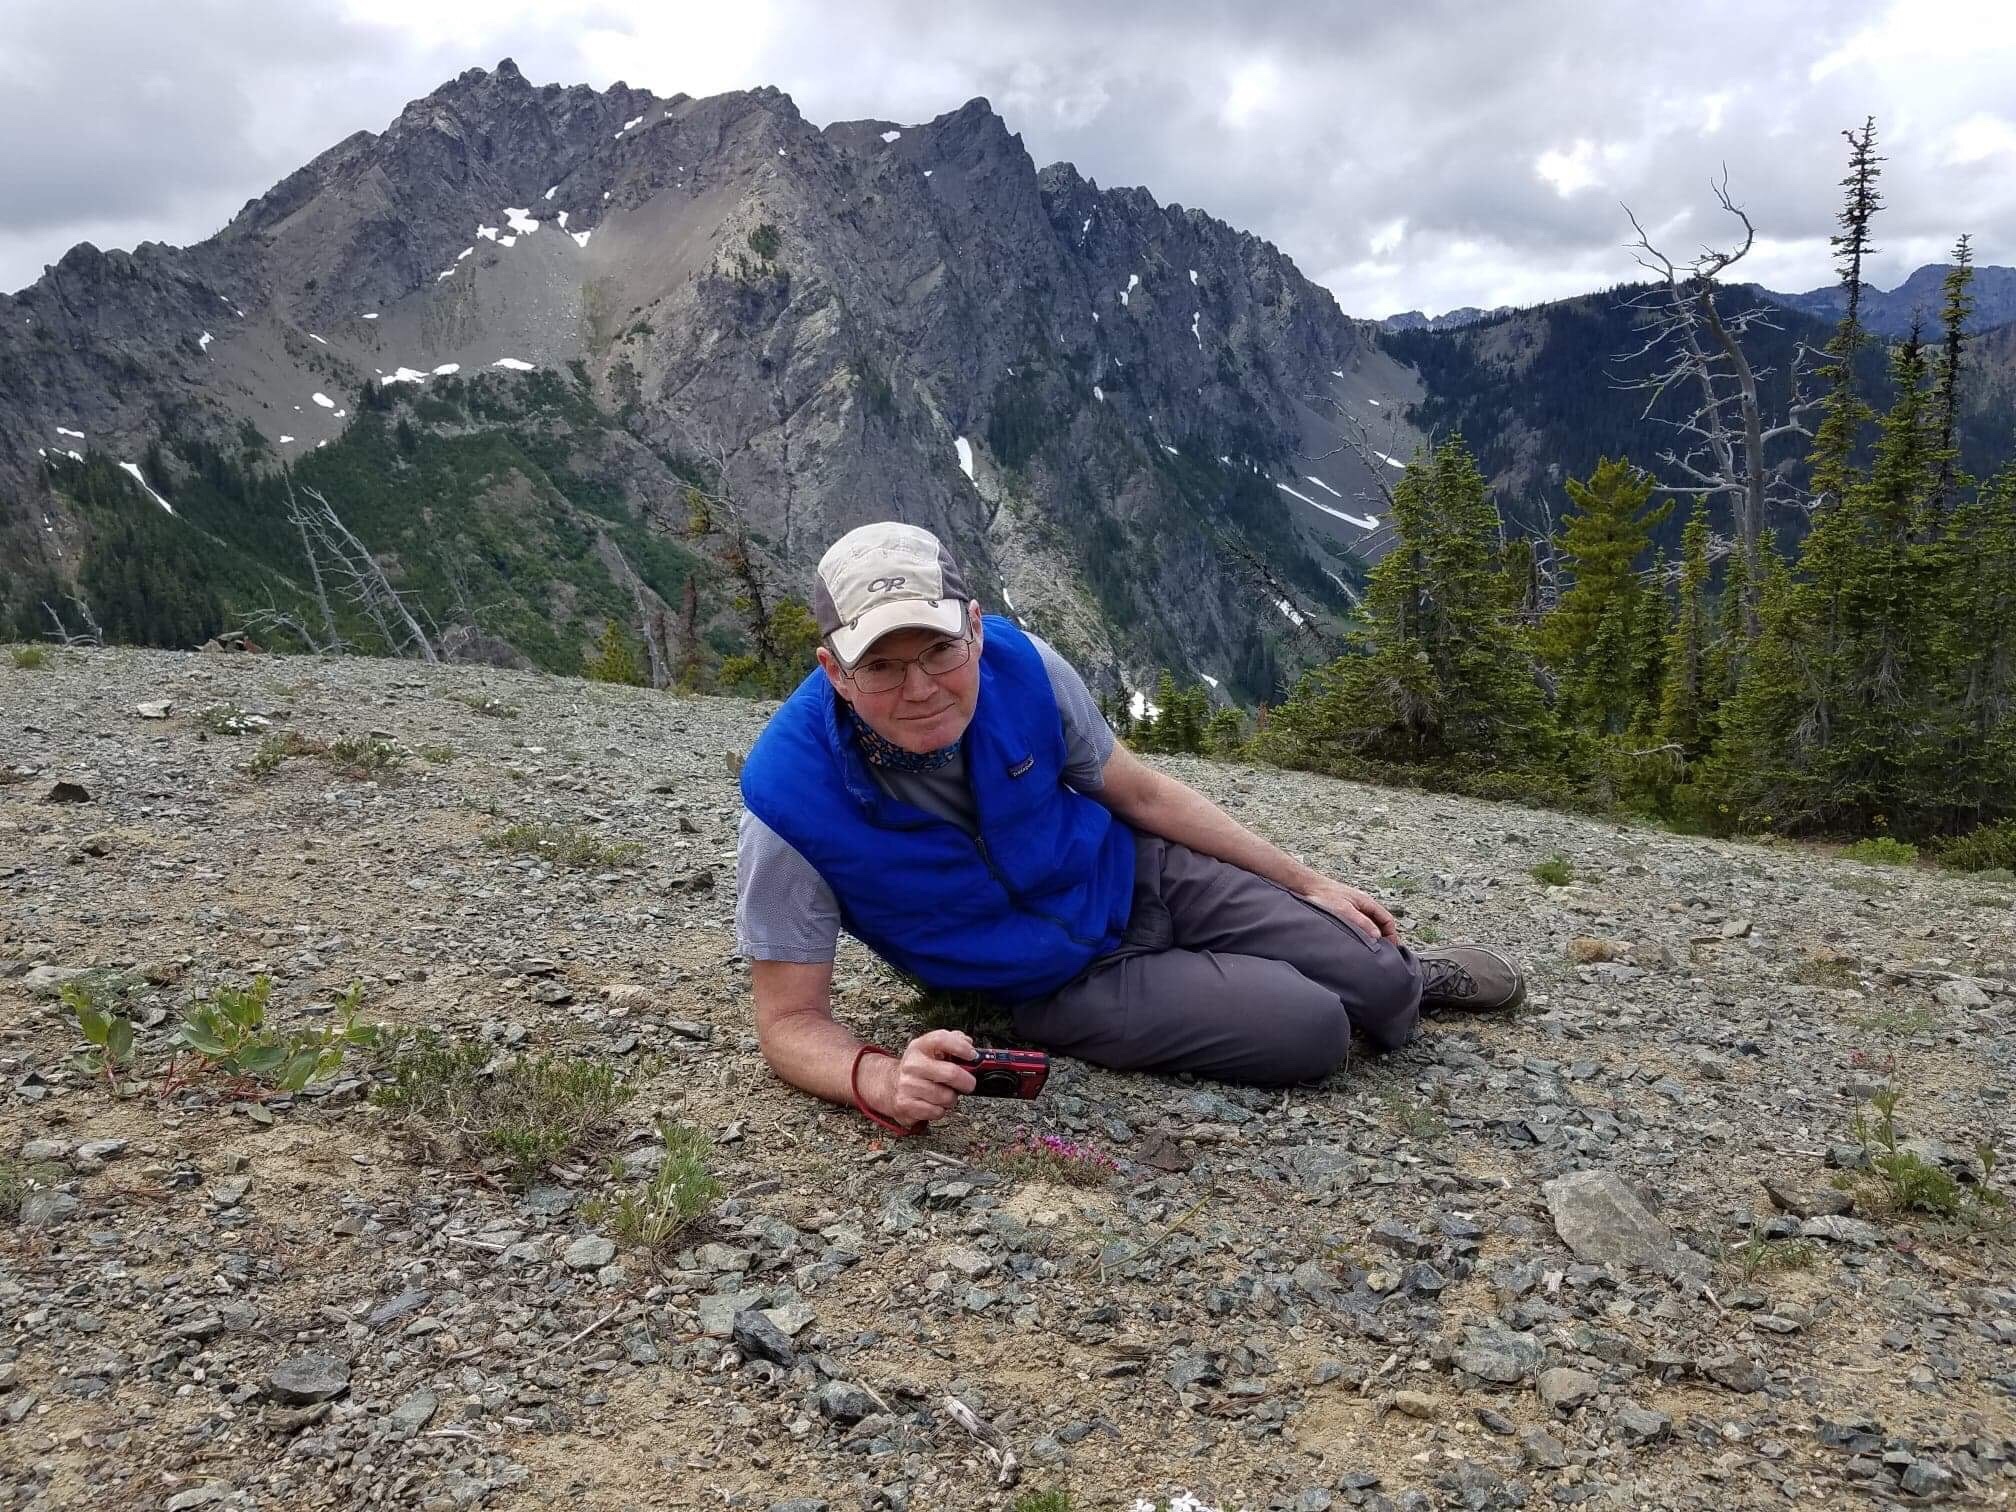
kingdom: Plantae
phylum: Tracheophyta
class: Magnoliopsida
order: Ericales
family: Primulaceae
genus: Androsace
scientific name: Androsace nivalis
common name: Snow dwarf-primrose
